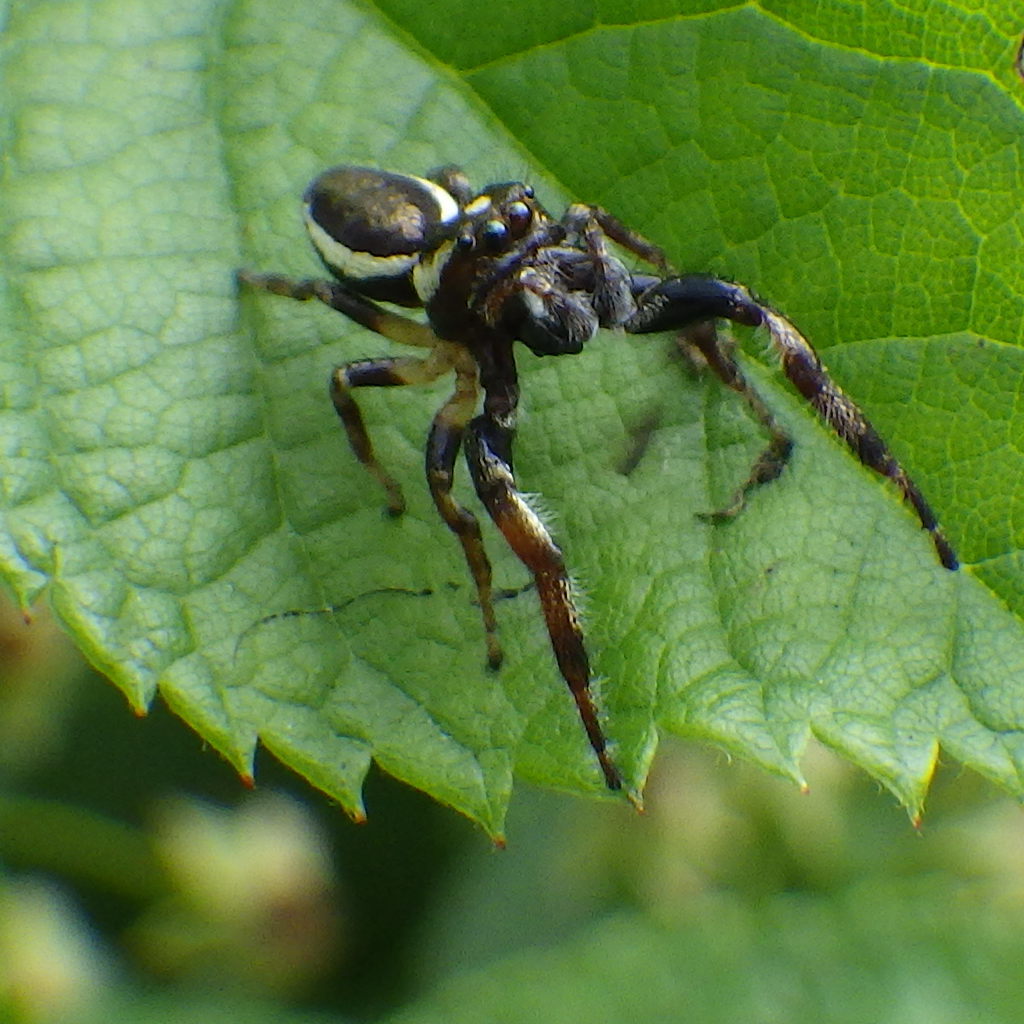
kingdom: Animalia
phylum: Arthropoda
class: Arachnida
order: Araneae
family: Salticidae
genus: Eris
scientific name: Eris militaris
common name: Bronze jumper
